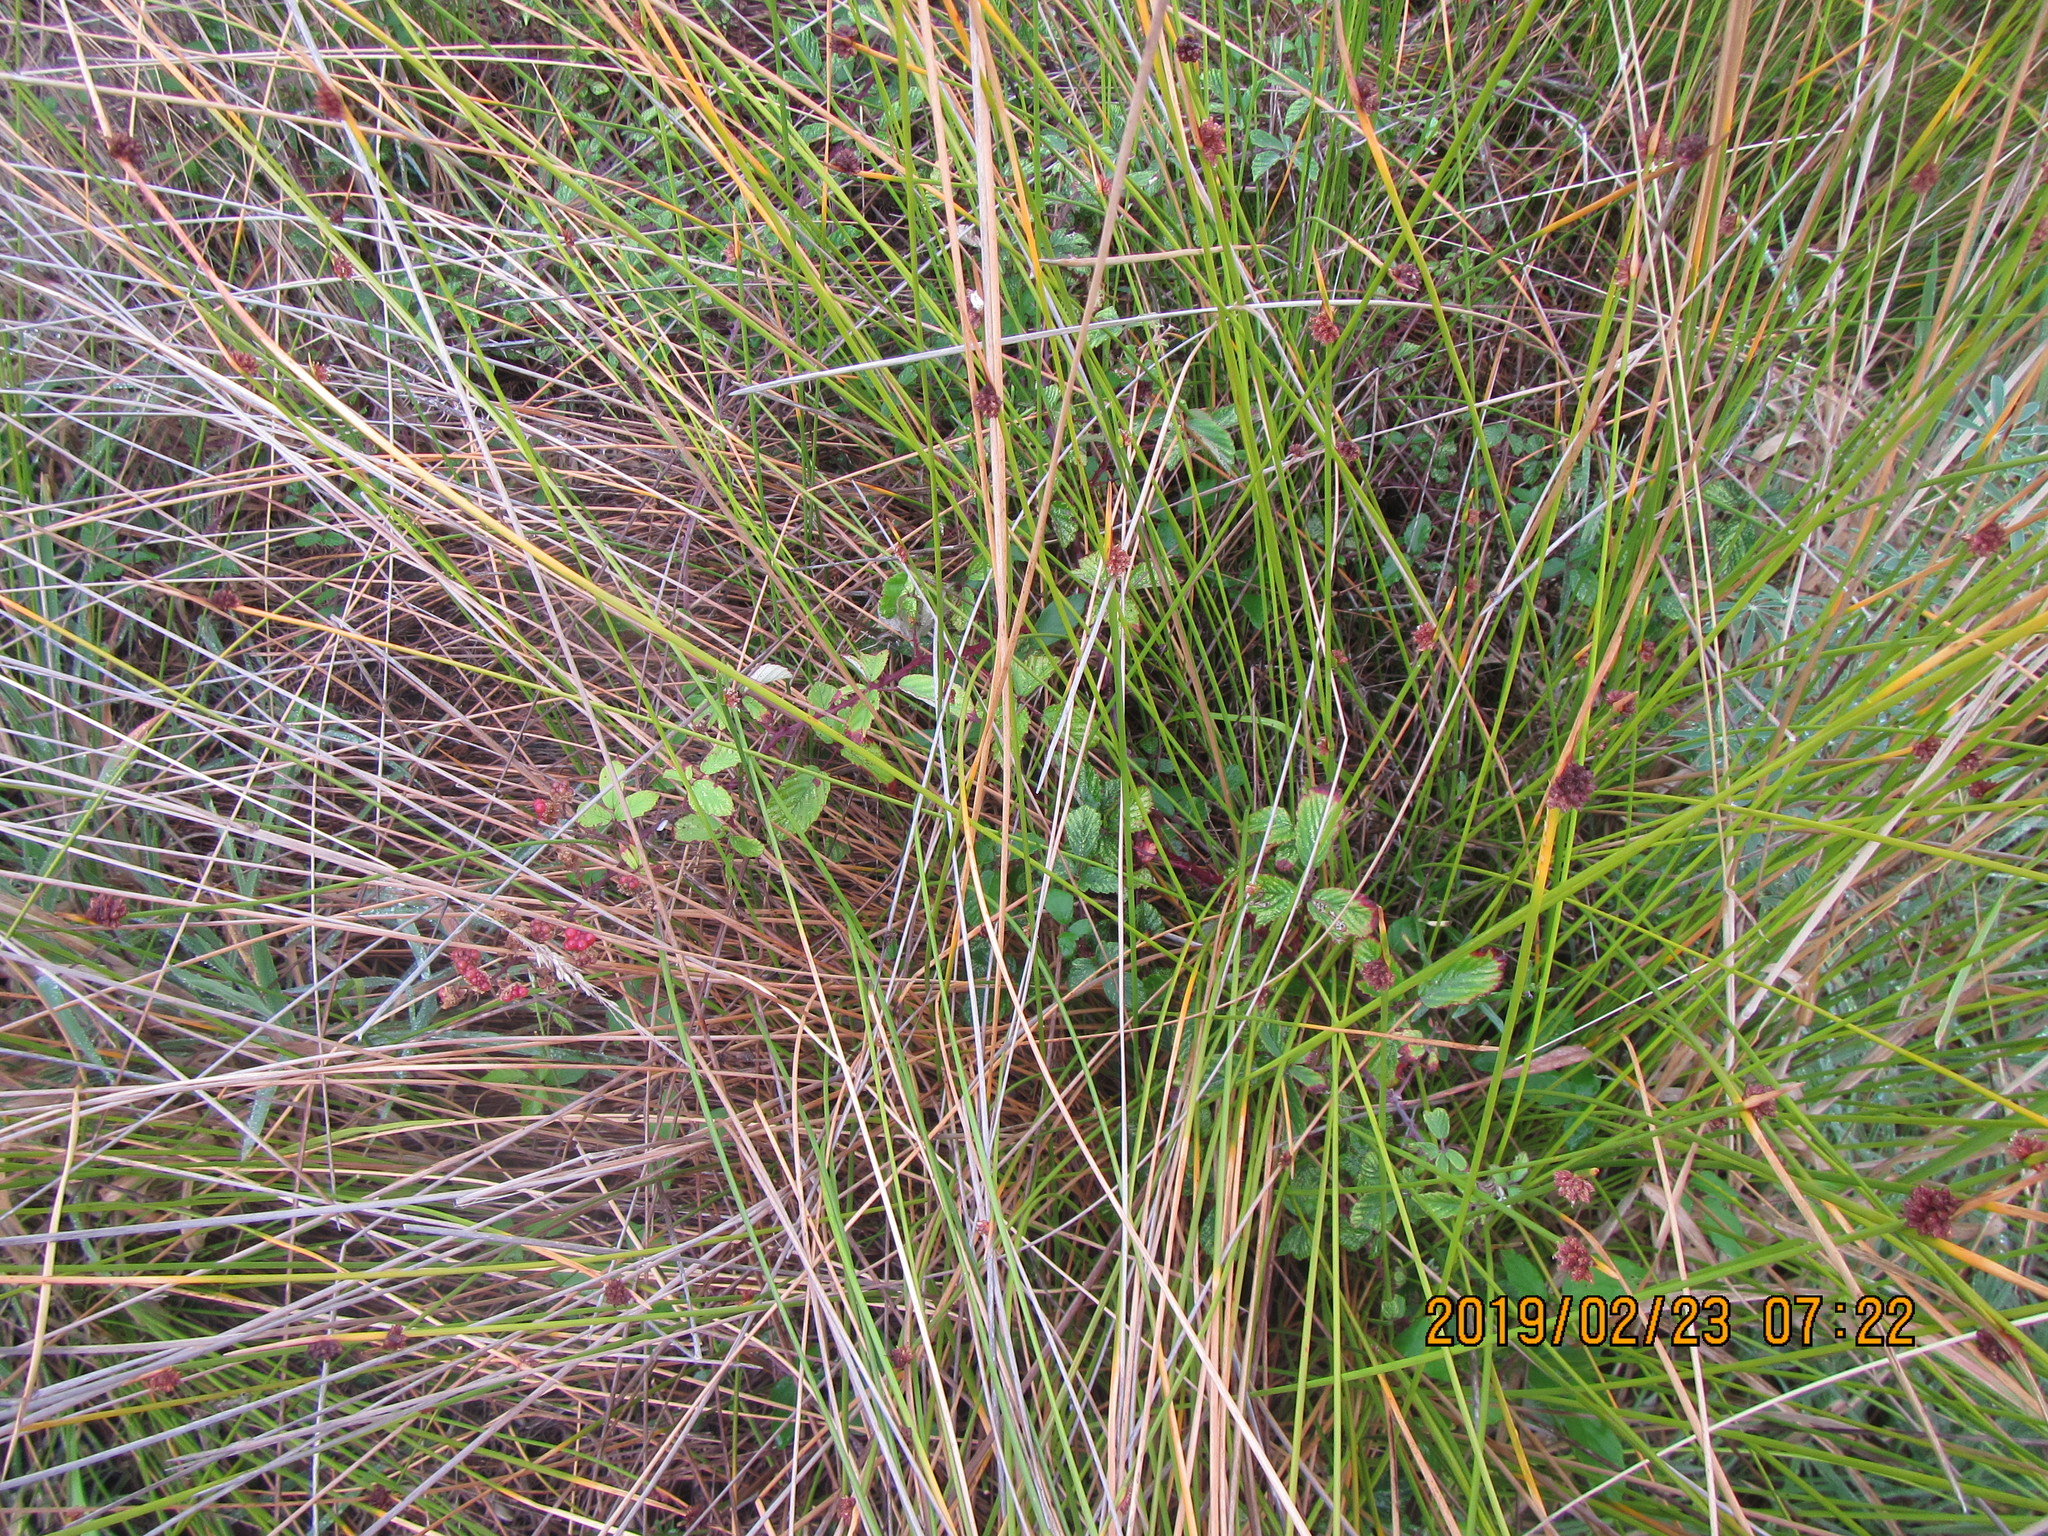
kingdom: Plantae
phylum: Tracheophyta
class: Magnoliopsida
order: Rosales
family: Rosaceae
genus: Rubus
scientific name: Rubus
